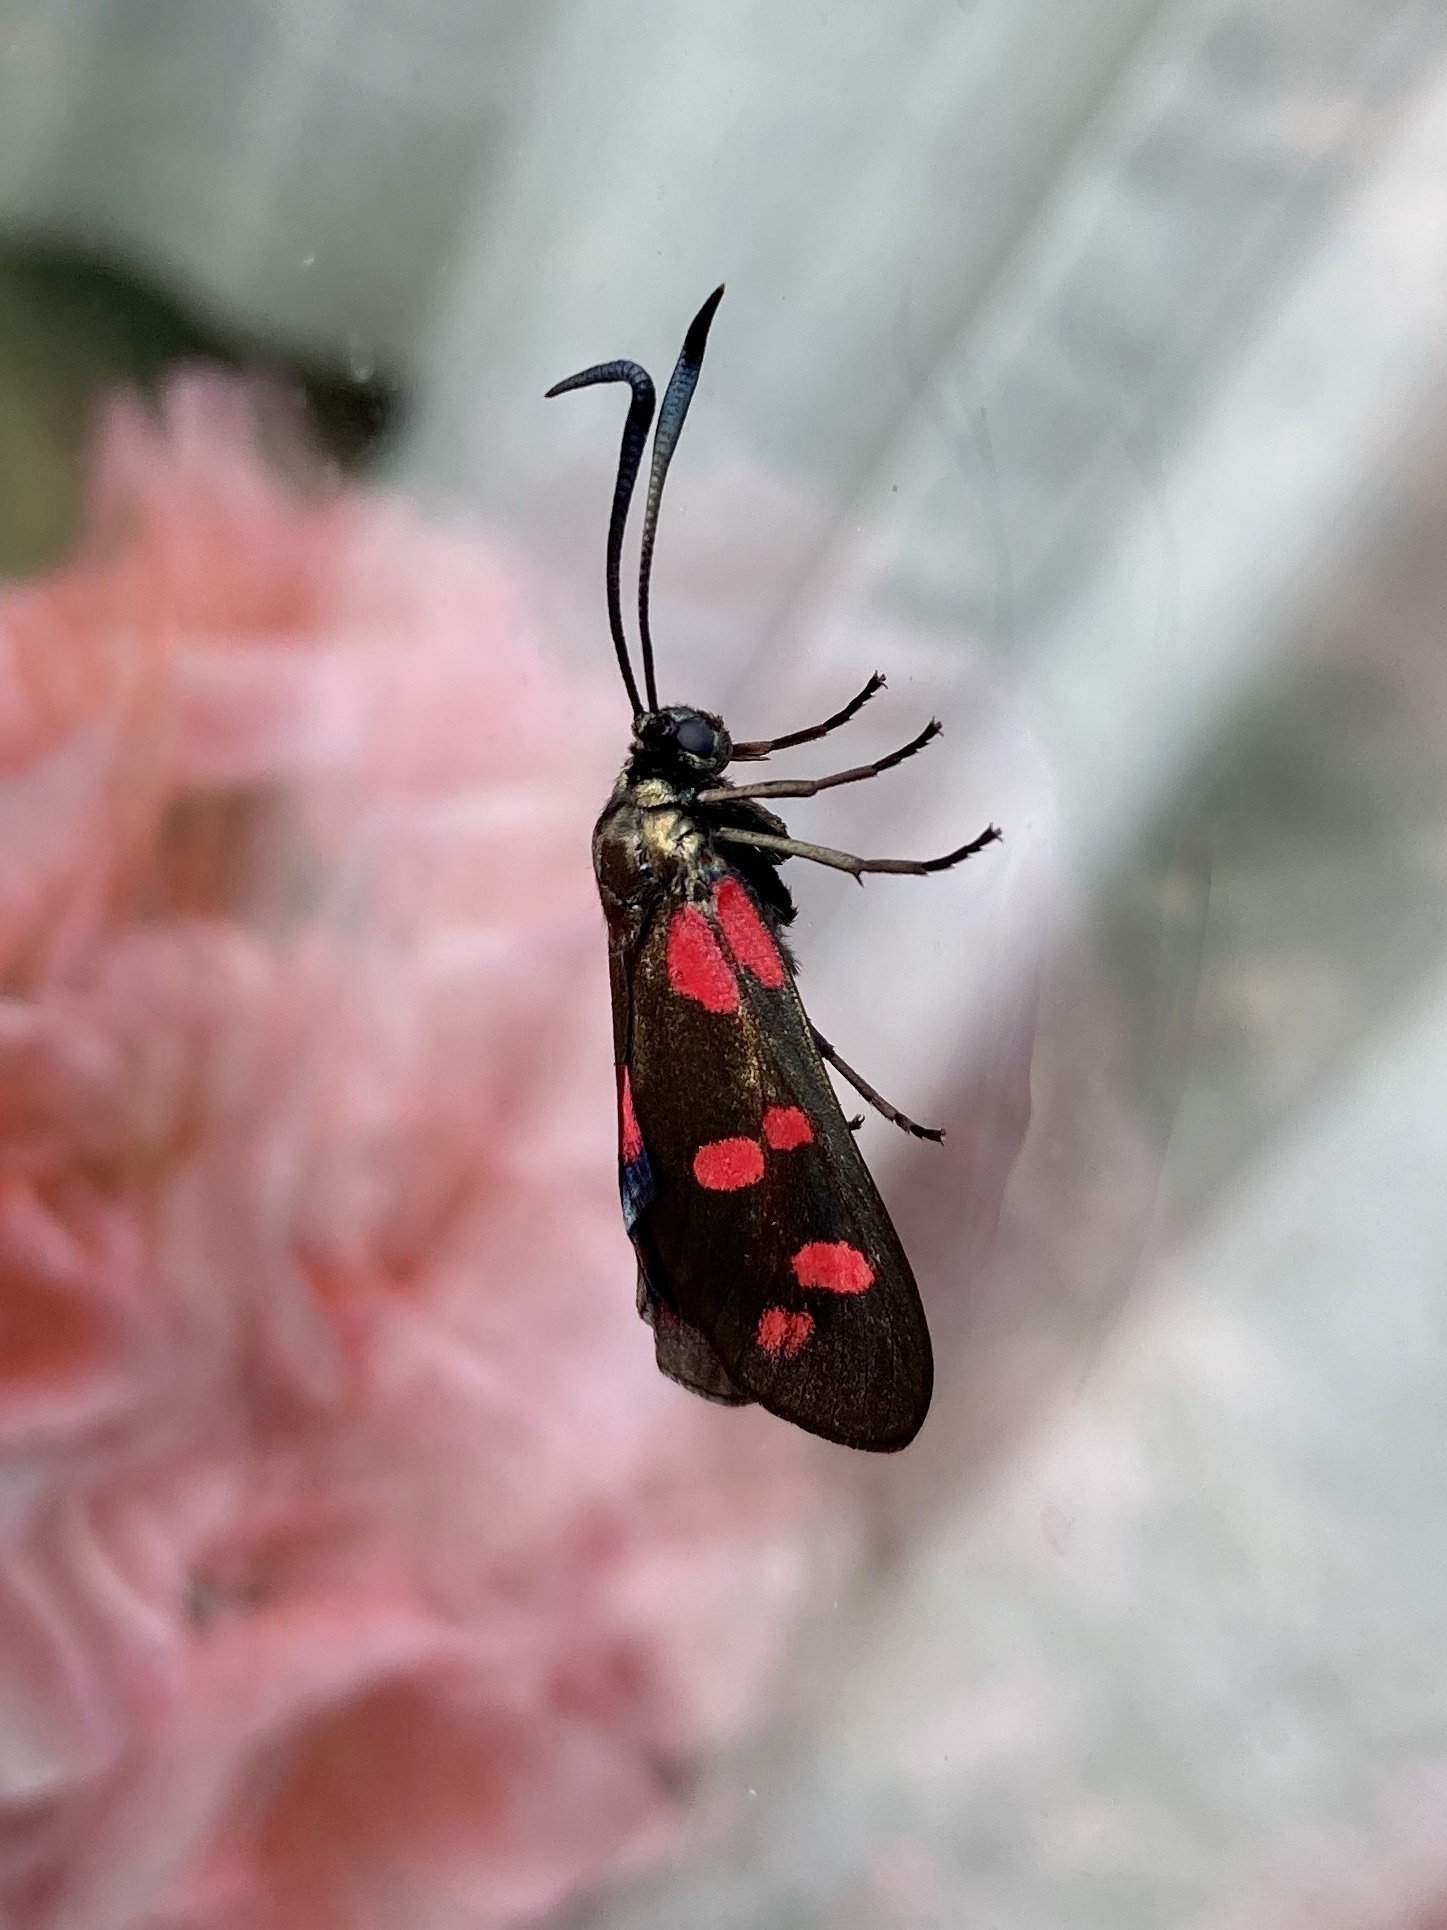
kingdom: Animalia
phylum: Arthropoda
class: Insecta
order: Lepidoptera
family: Zygaenidae
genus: Zygaena
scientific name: Zygaena filipendulae
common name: Six-spot burnet
